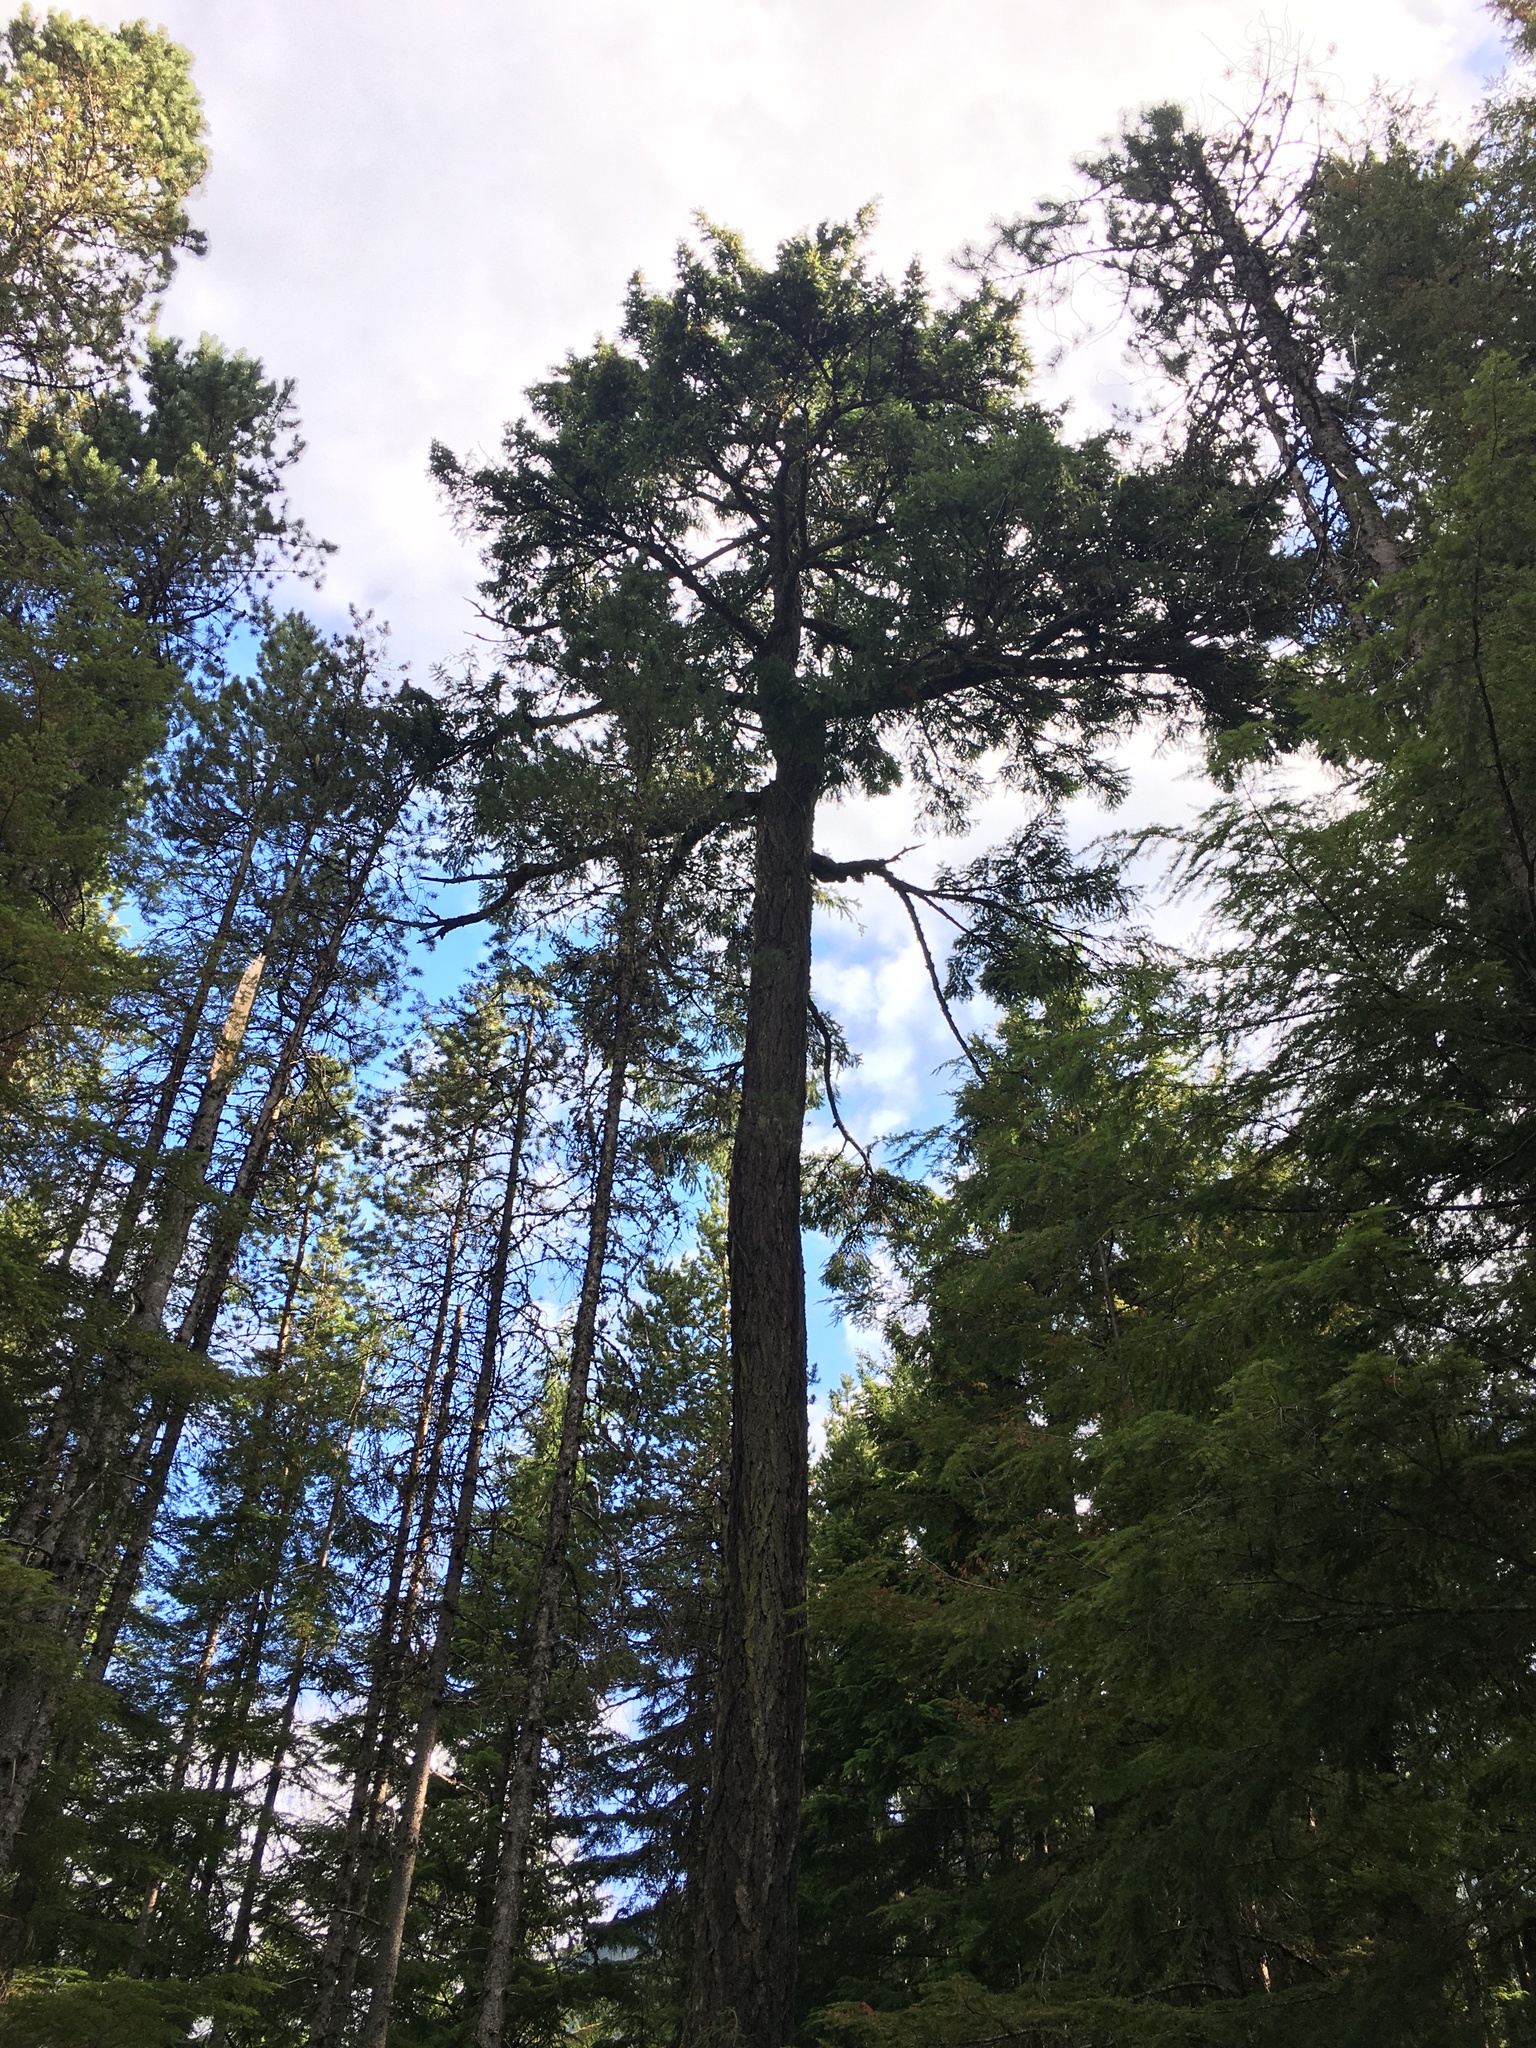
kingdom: Plantae
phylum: Tracheophyta
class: Pinopsida
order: Pinales
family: Pinaceae
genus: Pseudotsuga
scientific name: Pseudotsuga menziesii
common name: Douglas fir
